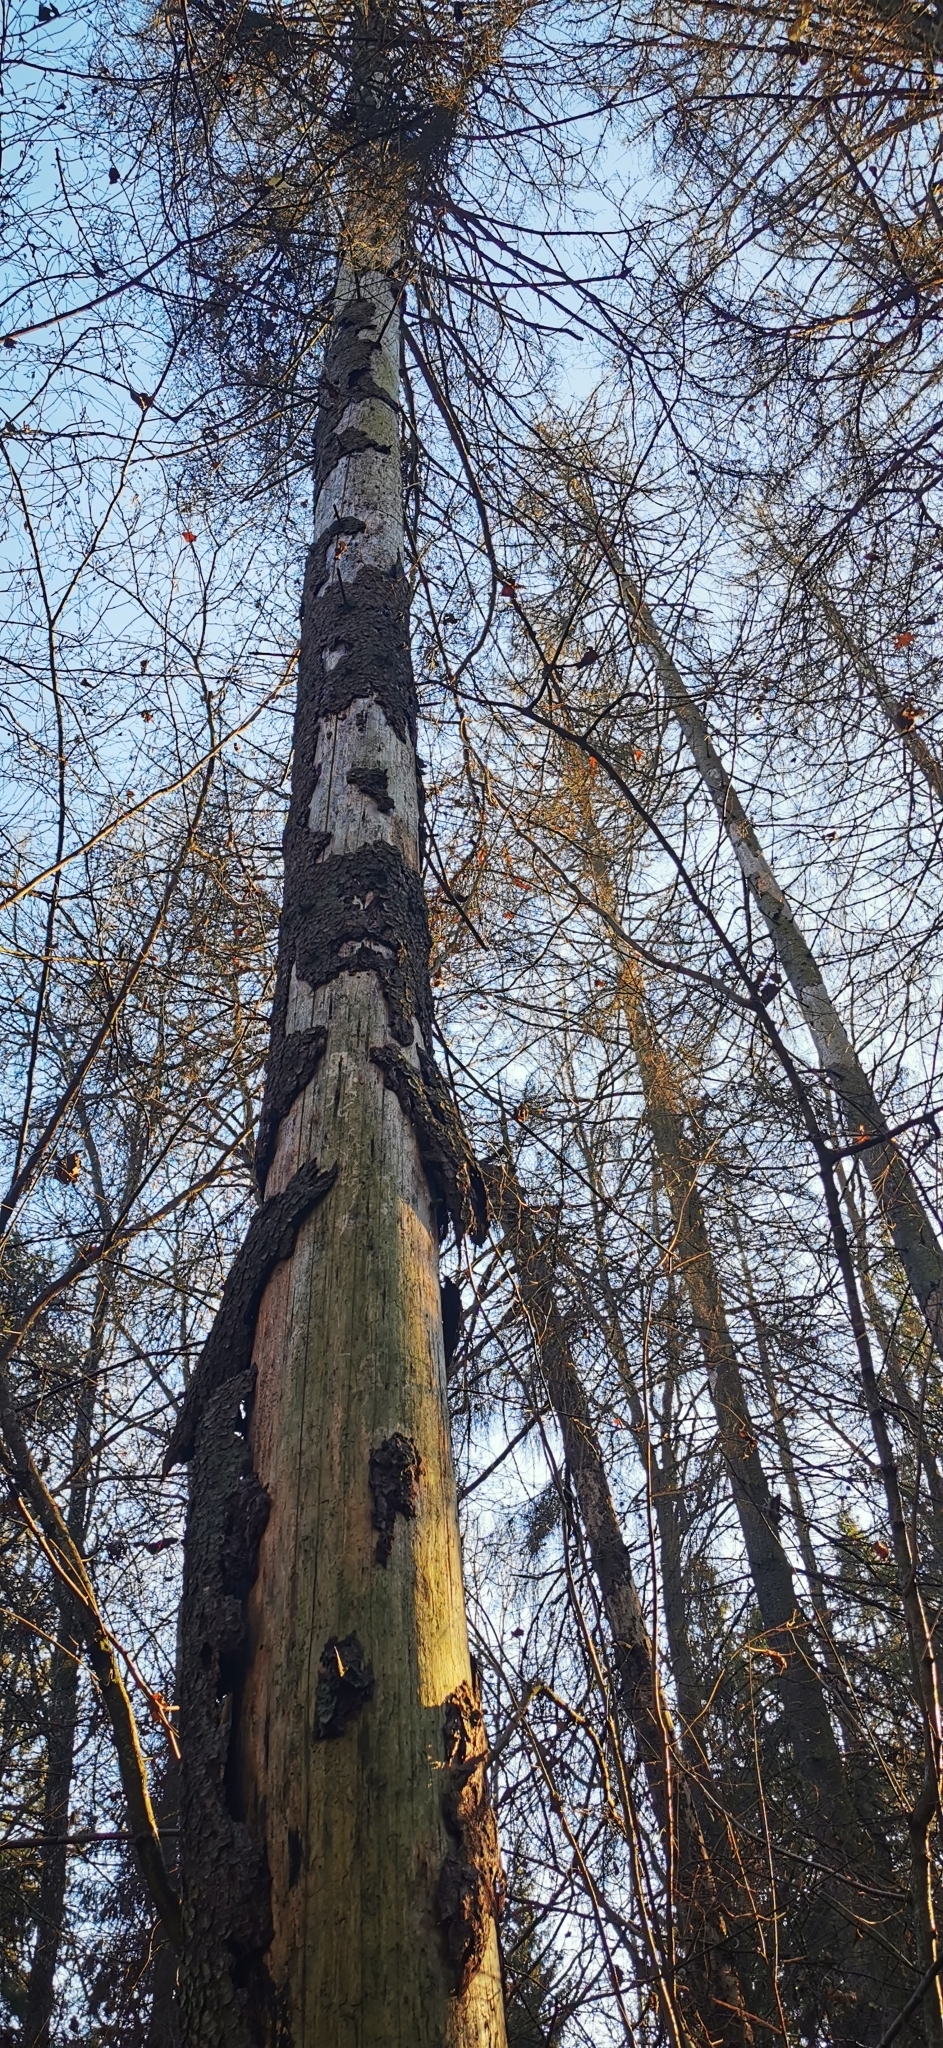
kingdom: Plantae
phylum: Tracheophyta
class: Pinopsida
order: Pinales
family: Pinaceae
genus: Picea
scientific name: Picea abies
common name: Norway spruce
